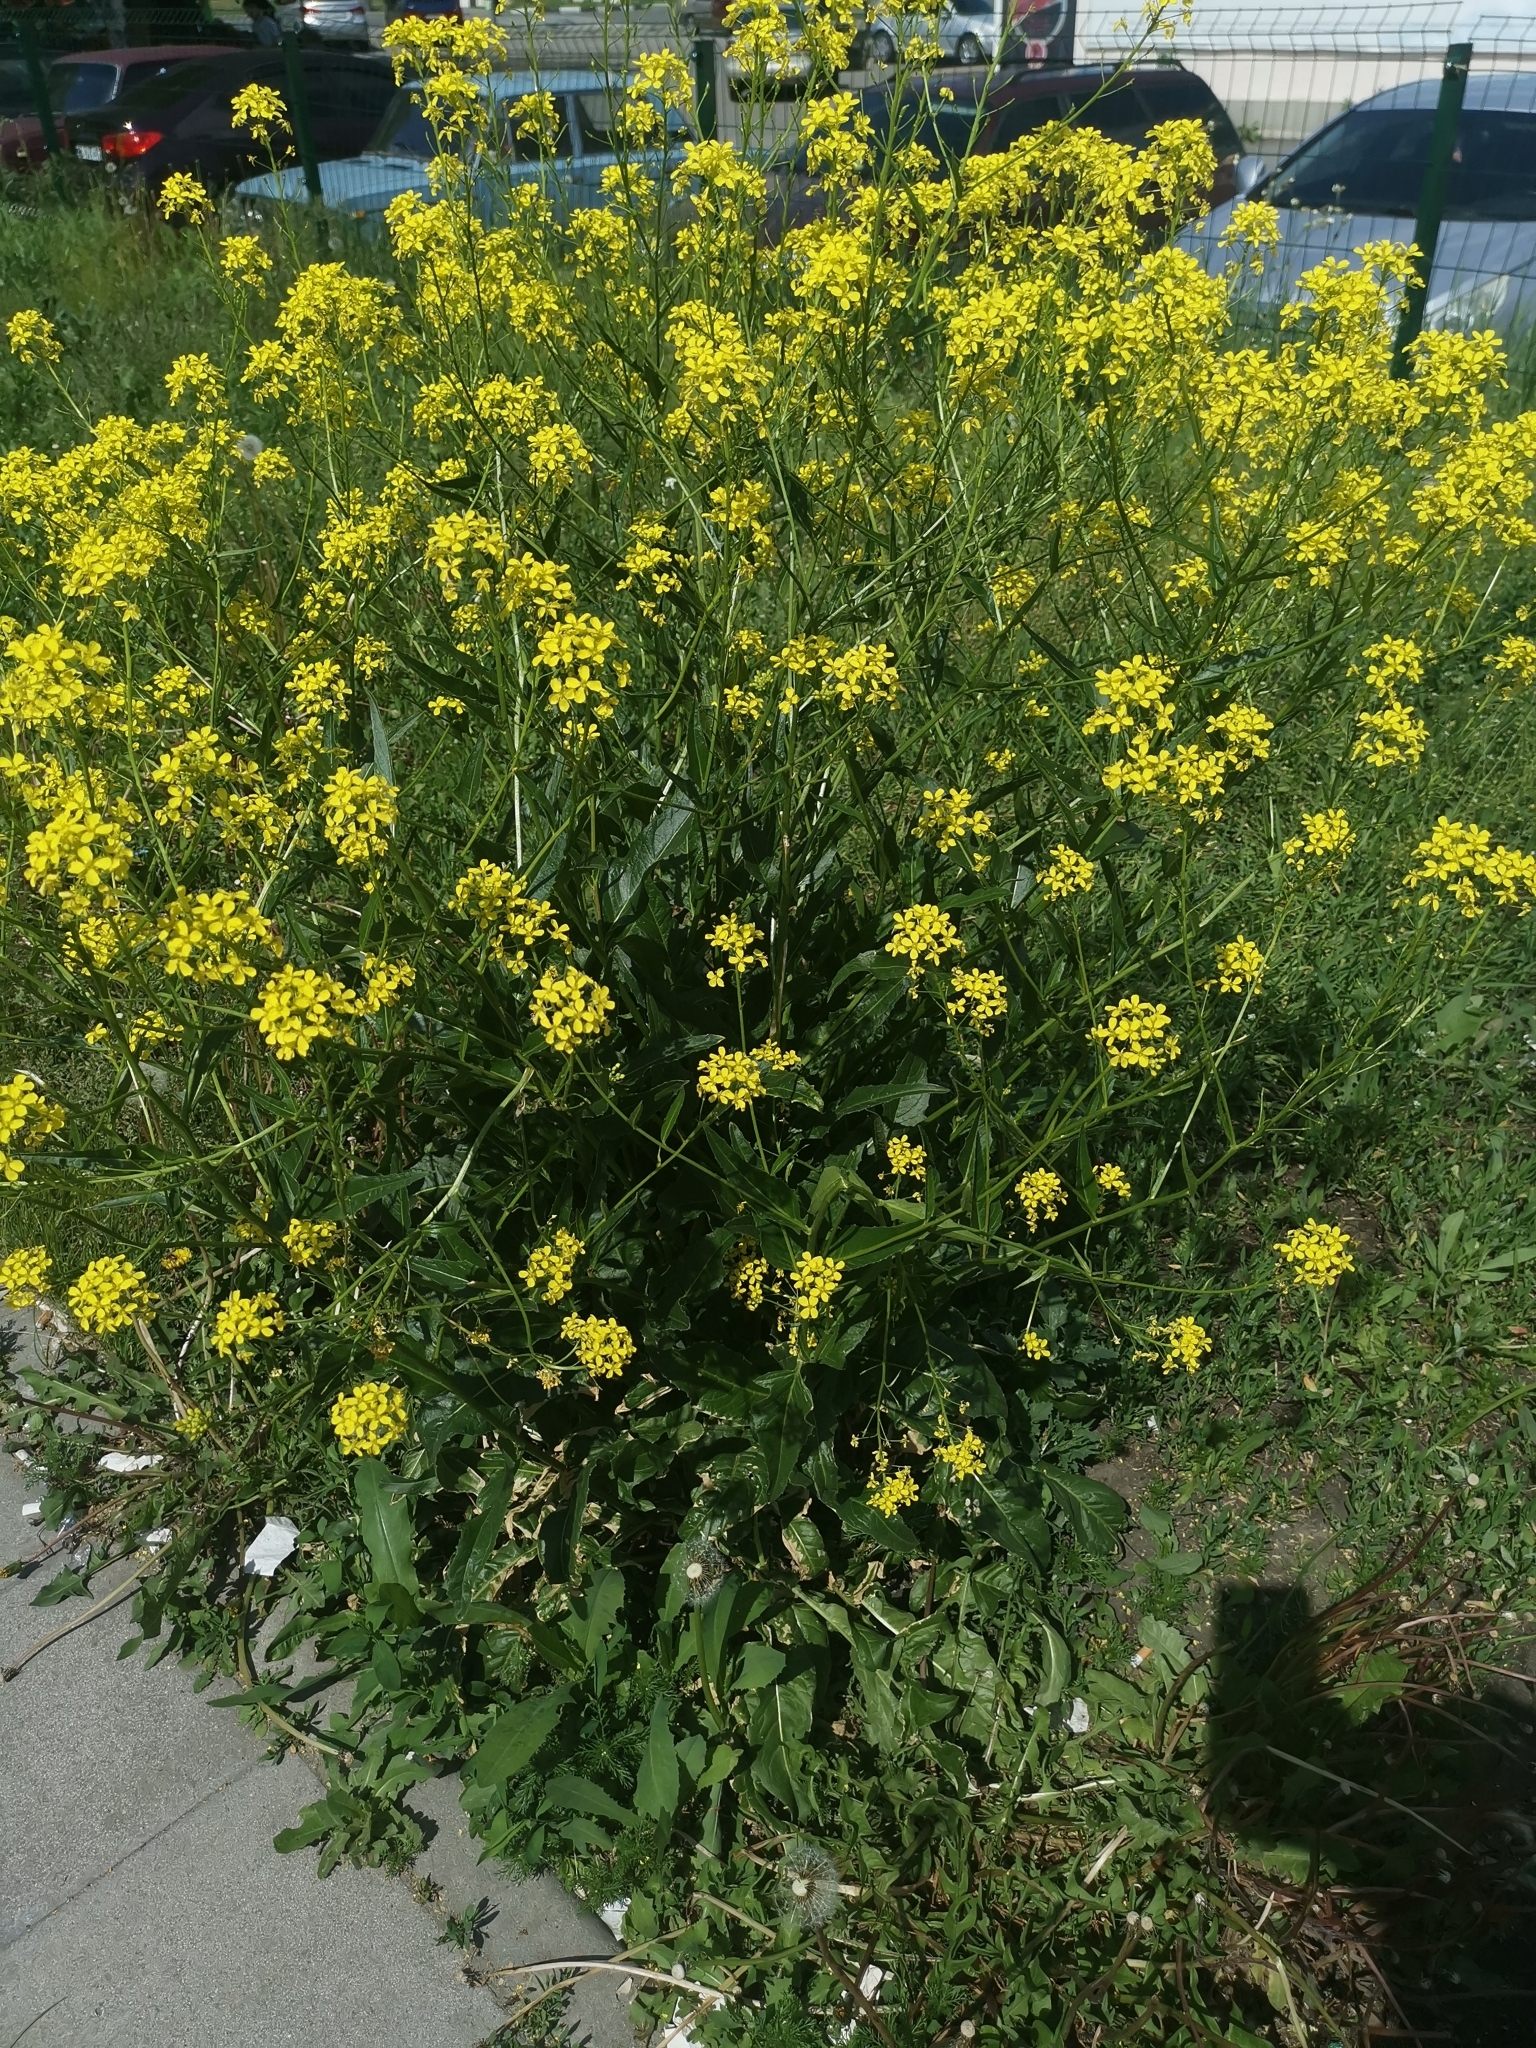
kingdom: Plantae
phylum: Tracheophyta
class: Magnoliopsida
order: Brassicales
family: Brassicaceae
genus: Bunias
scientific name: Bunias orientalis
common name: Warty-cabbage
